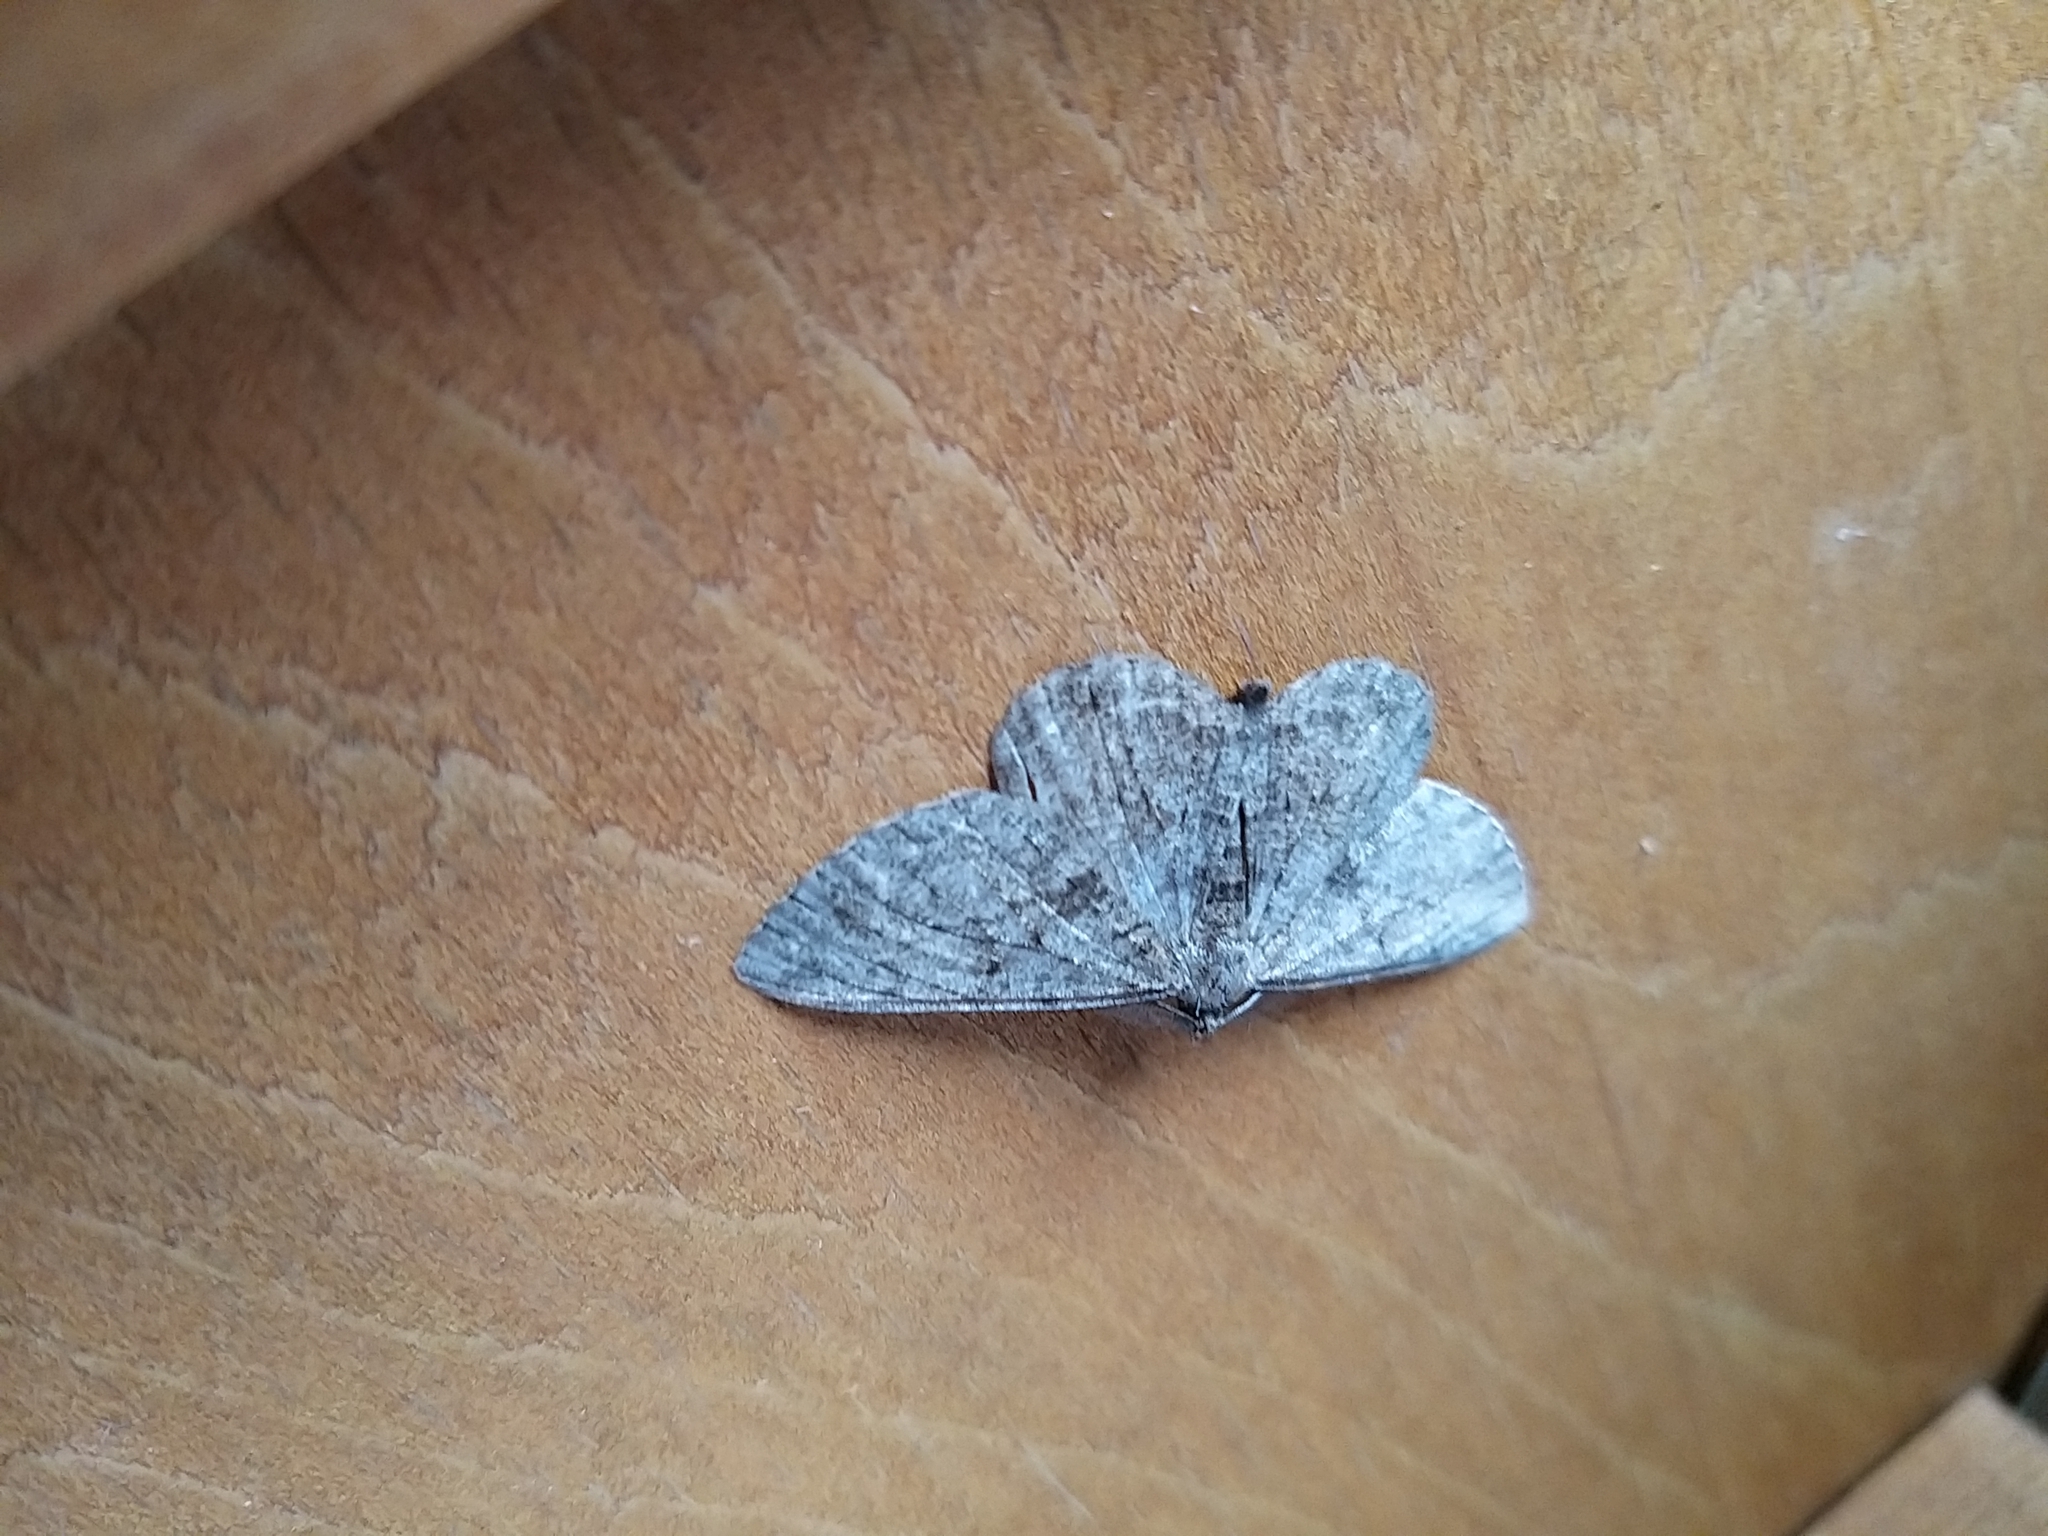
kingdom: Animalia
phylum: Arthropoda
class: Insecta
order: Lepidoptera
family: Geometridae
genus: Peribatodes
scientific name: Peribatodes rhomboidaria
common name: Willow beauty
